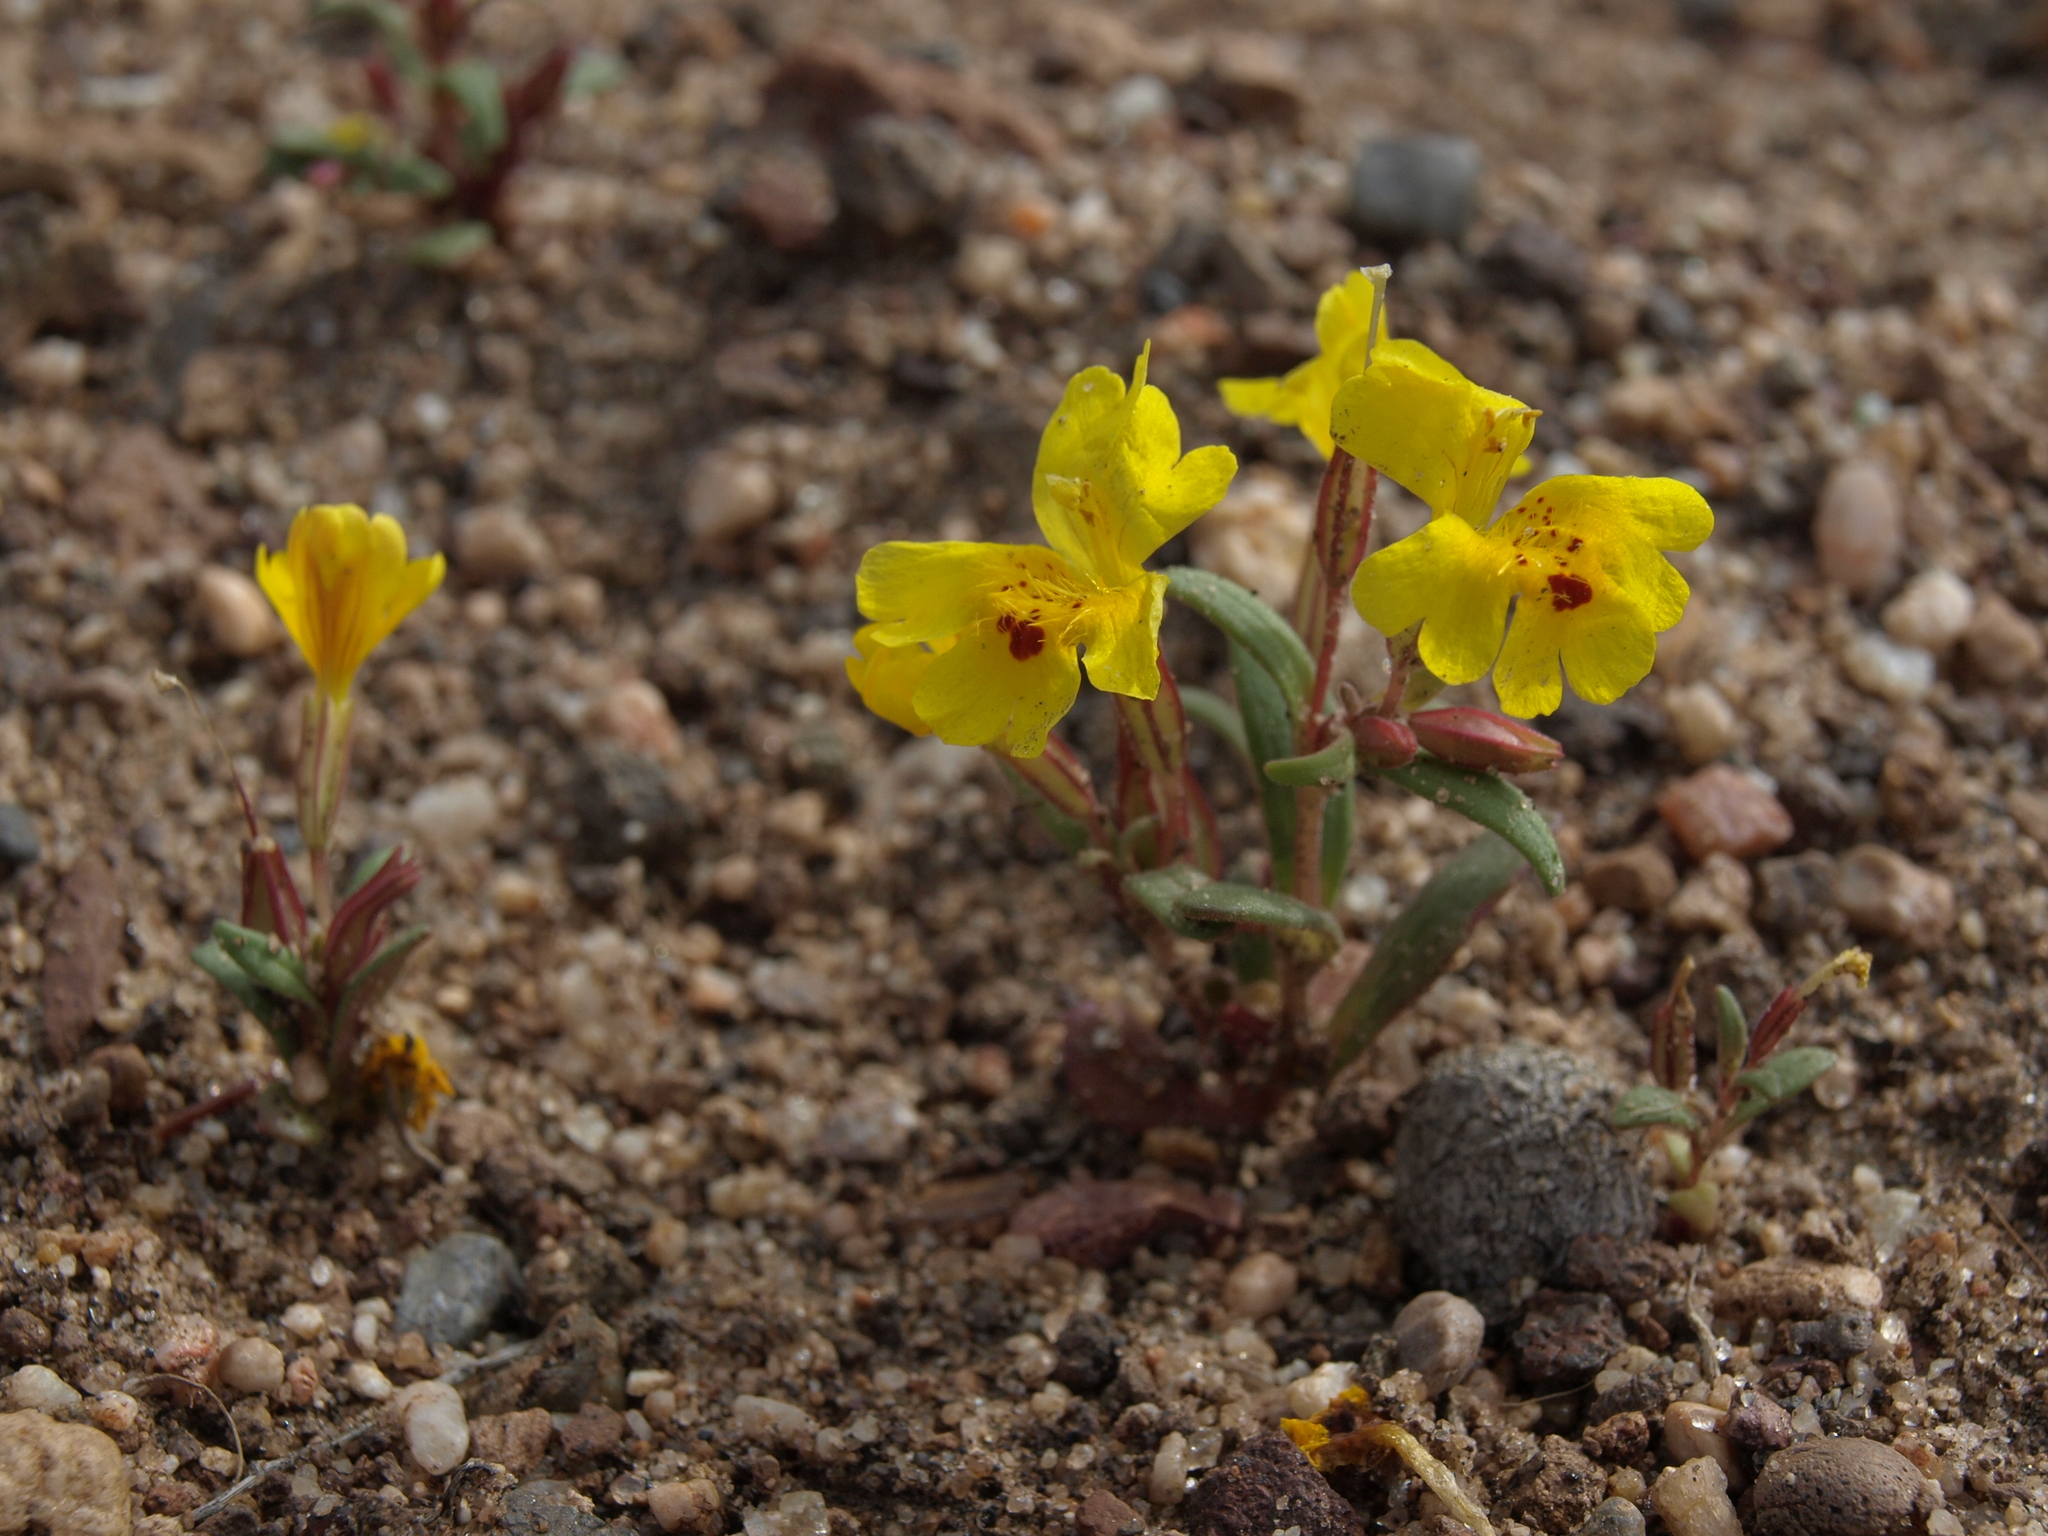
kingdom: Plantae
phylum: Tracheophyta
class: Magnoliopsida
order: Lamiales
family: Phrymaceae
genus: Erythranthe
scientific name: Erythranthe carsonensis
